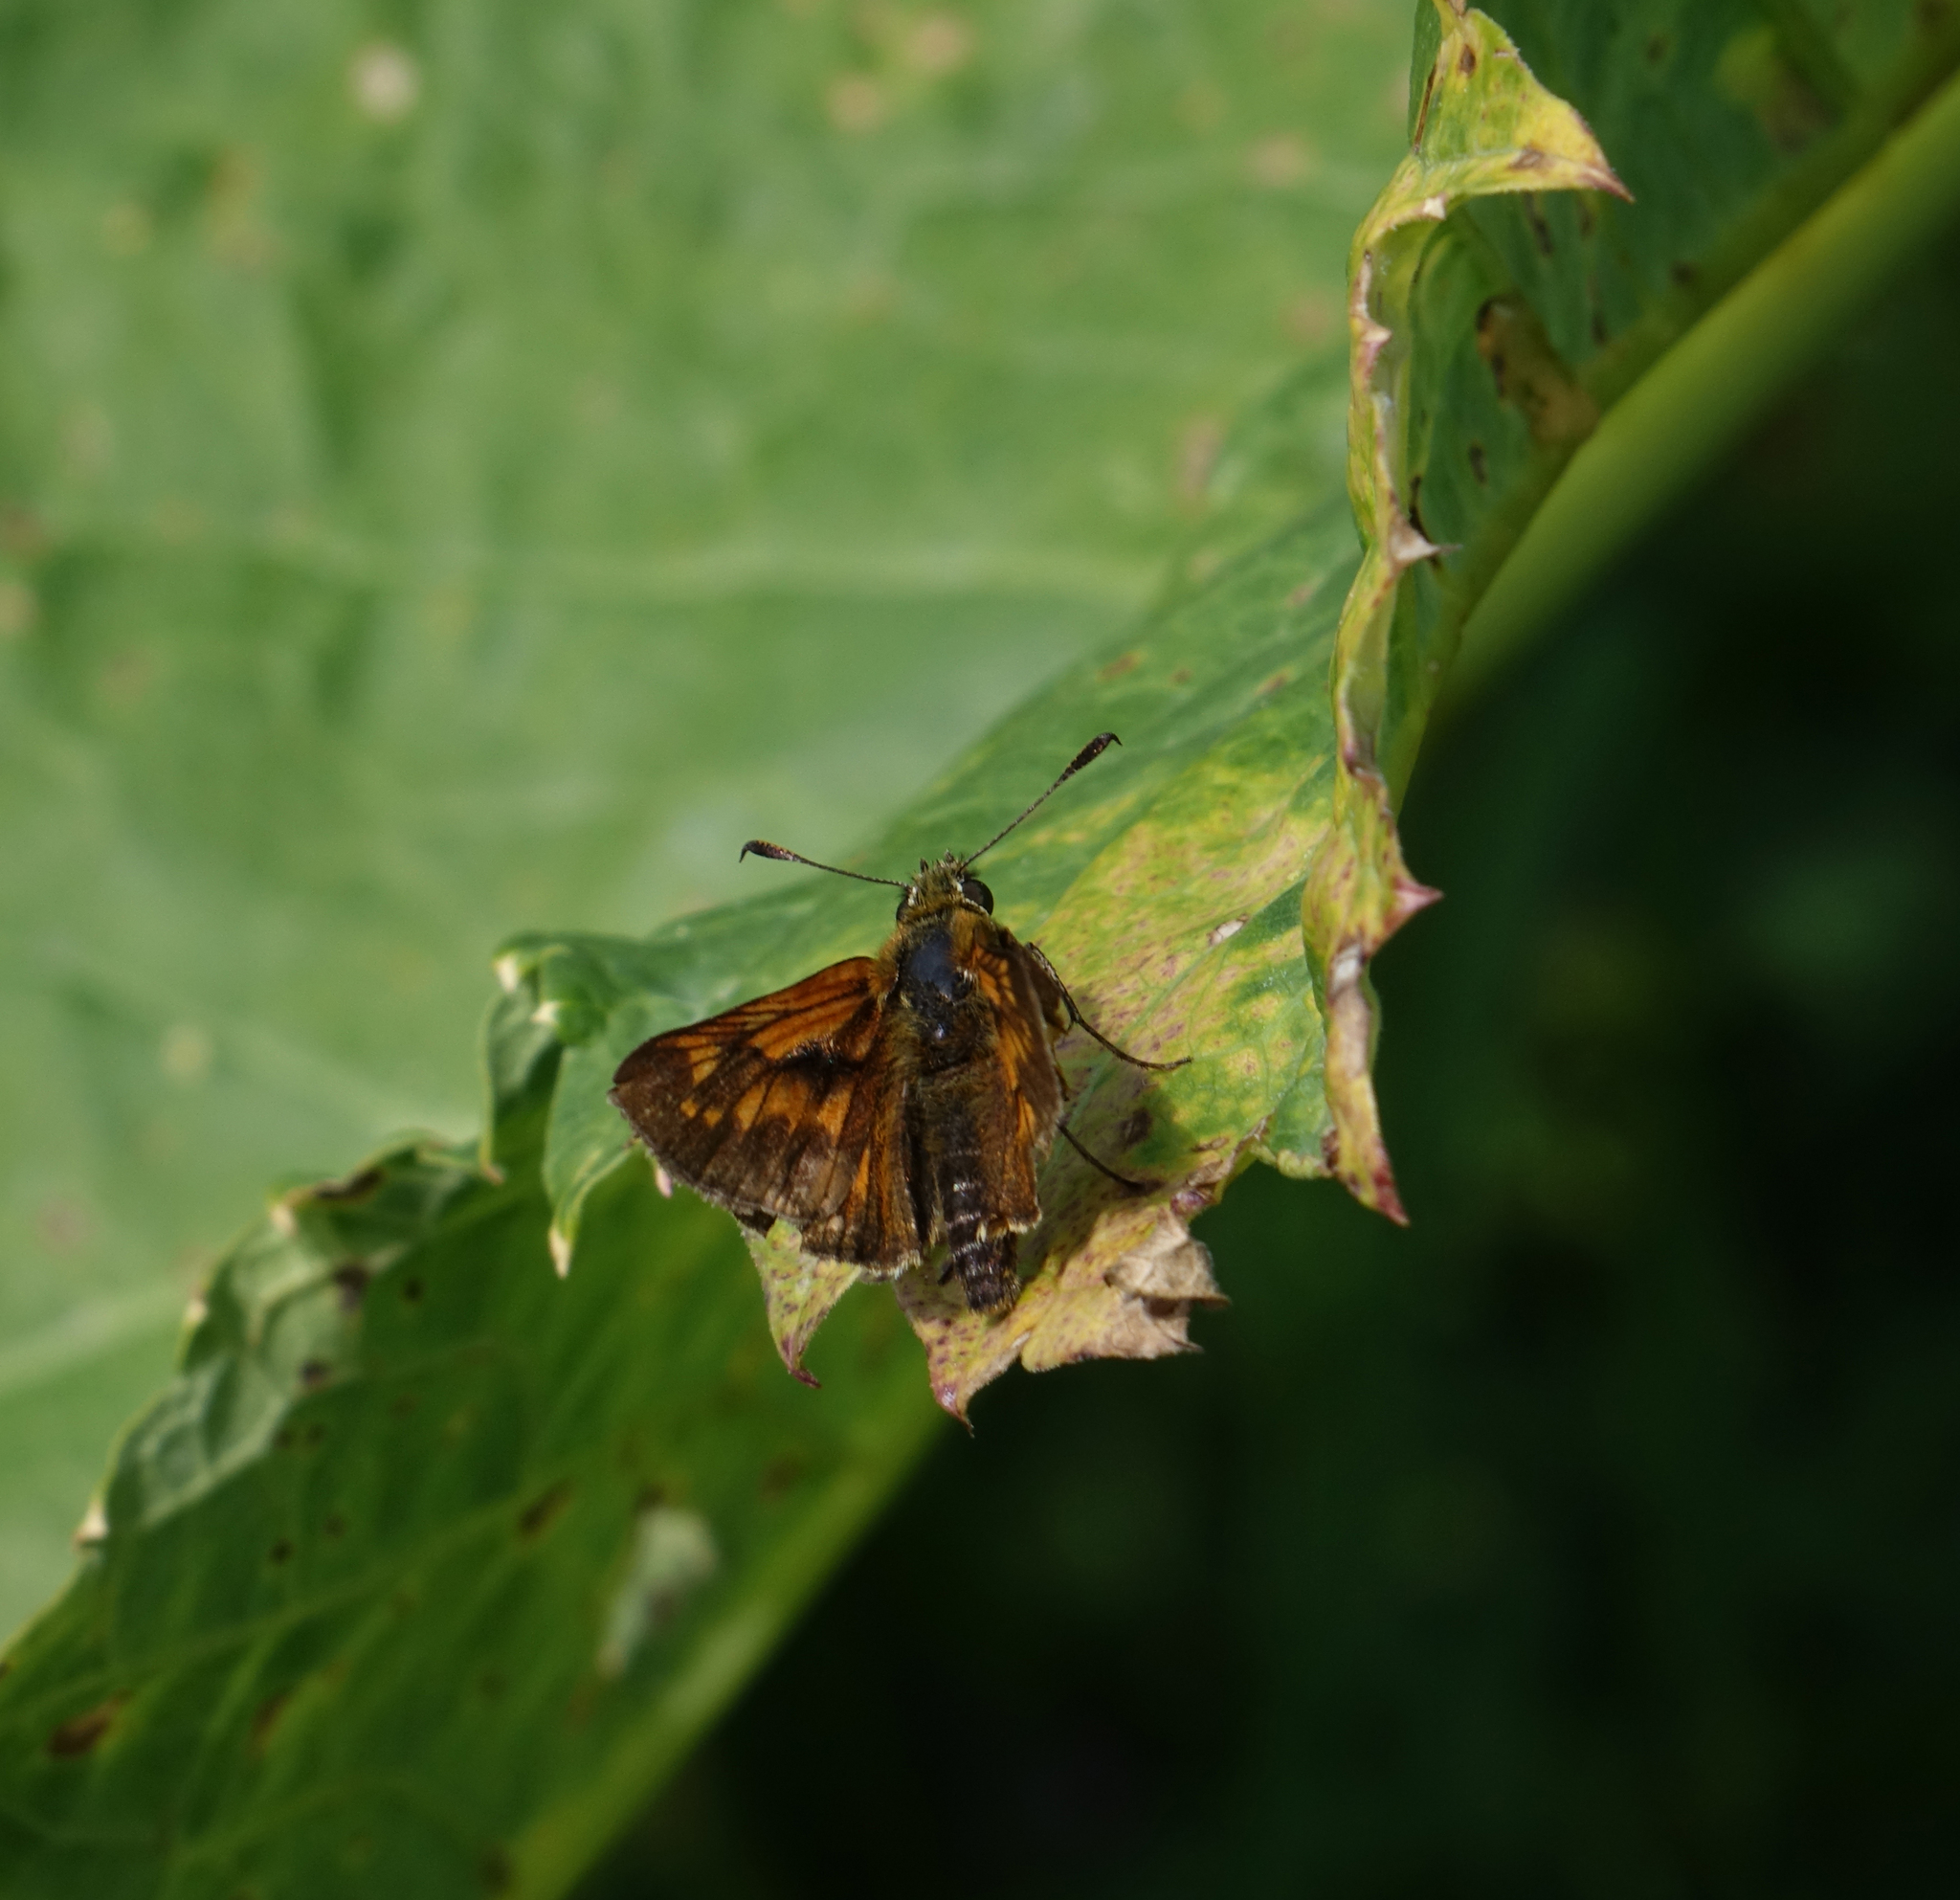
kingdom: Animalia
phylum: Arthropoda
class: Insecta
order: Lepidoptera
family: Hesperiidae
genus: Ochlodes
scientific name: Ochlodes venata
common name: Large skipper
